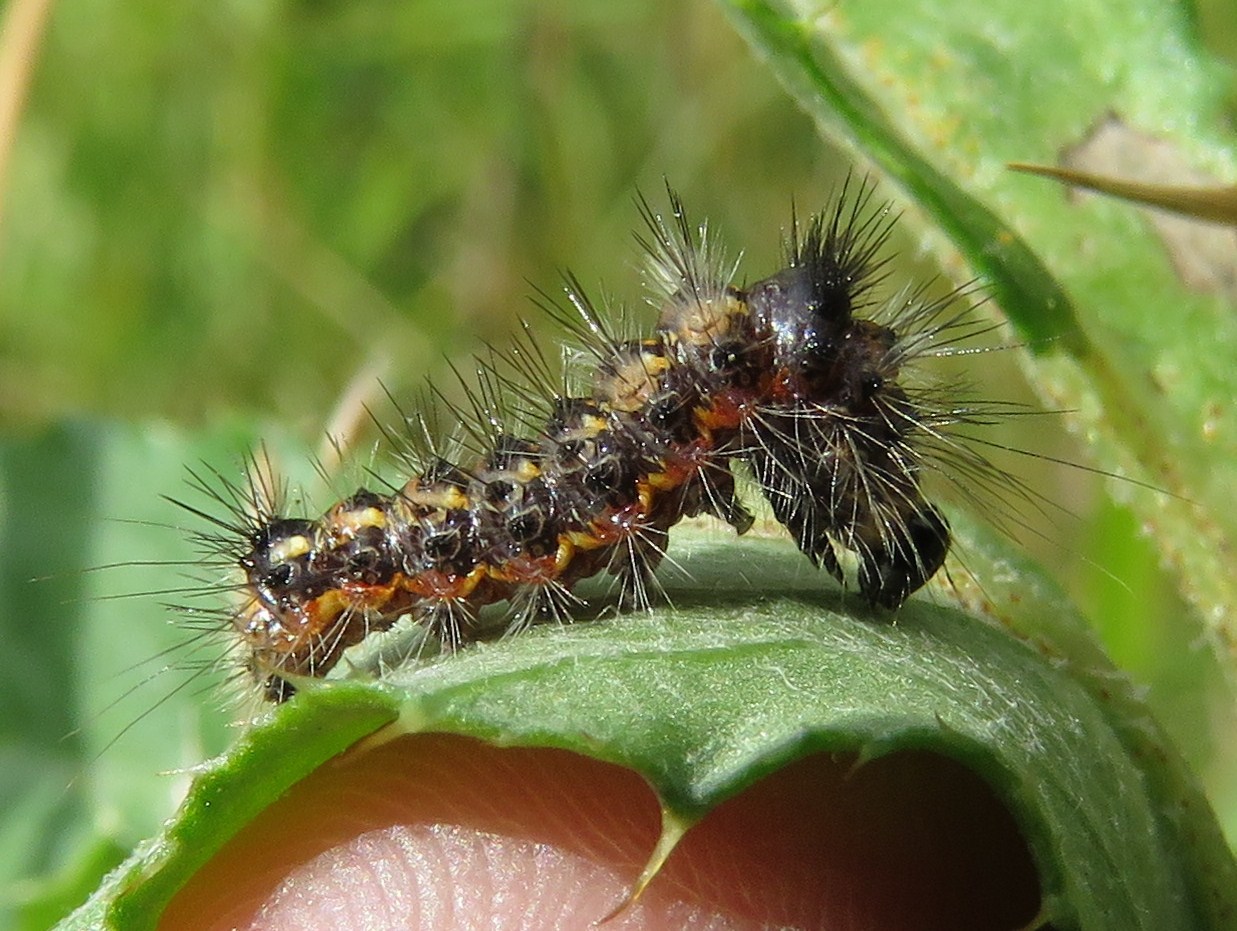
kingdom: Animalia
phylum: Arthropoda
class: Insecta
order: Lepidoptera
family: Noctuidae
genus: Acronicta
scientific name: Acronicta rumicis
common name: Knot grass
